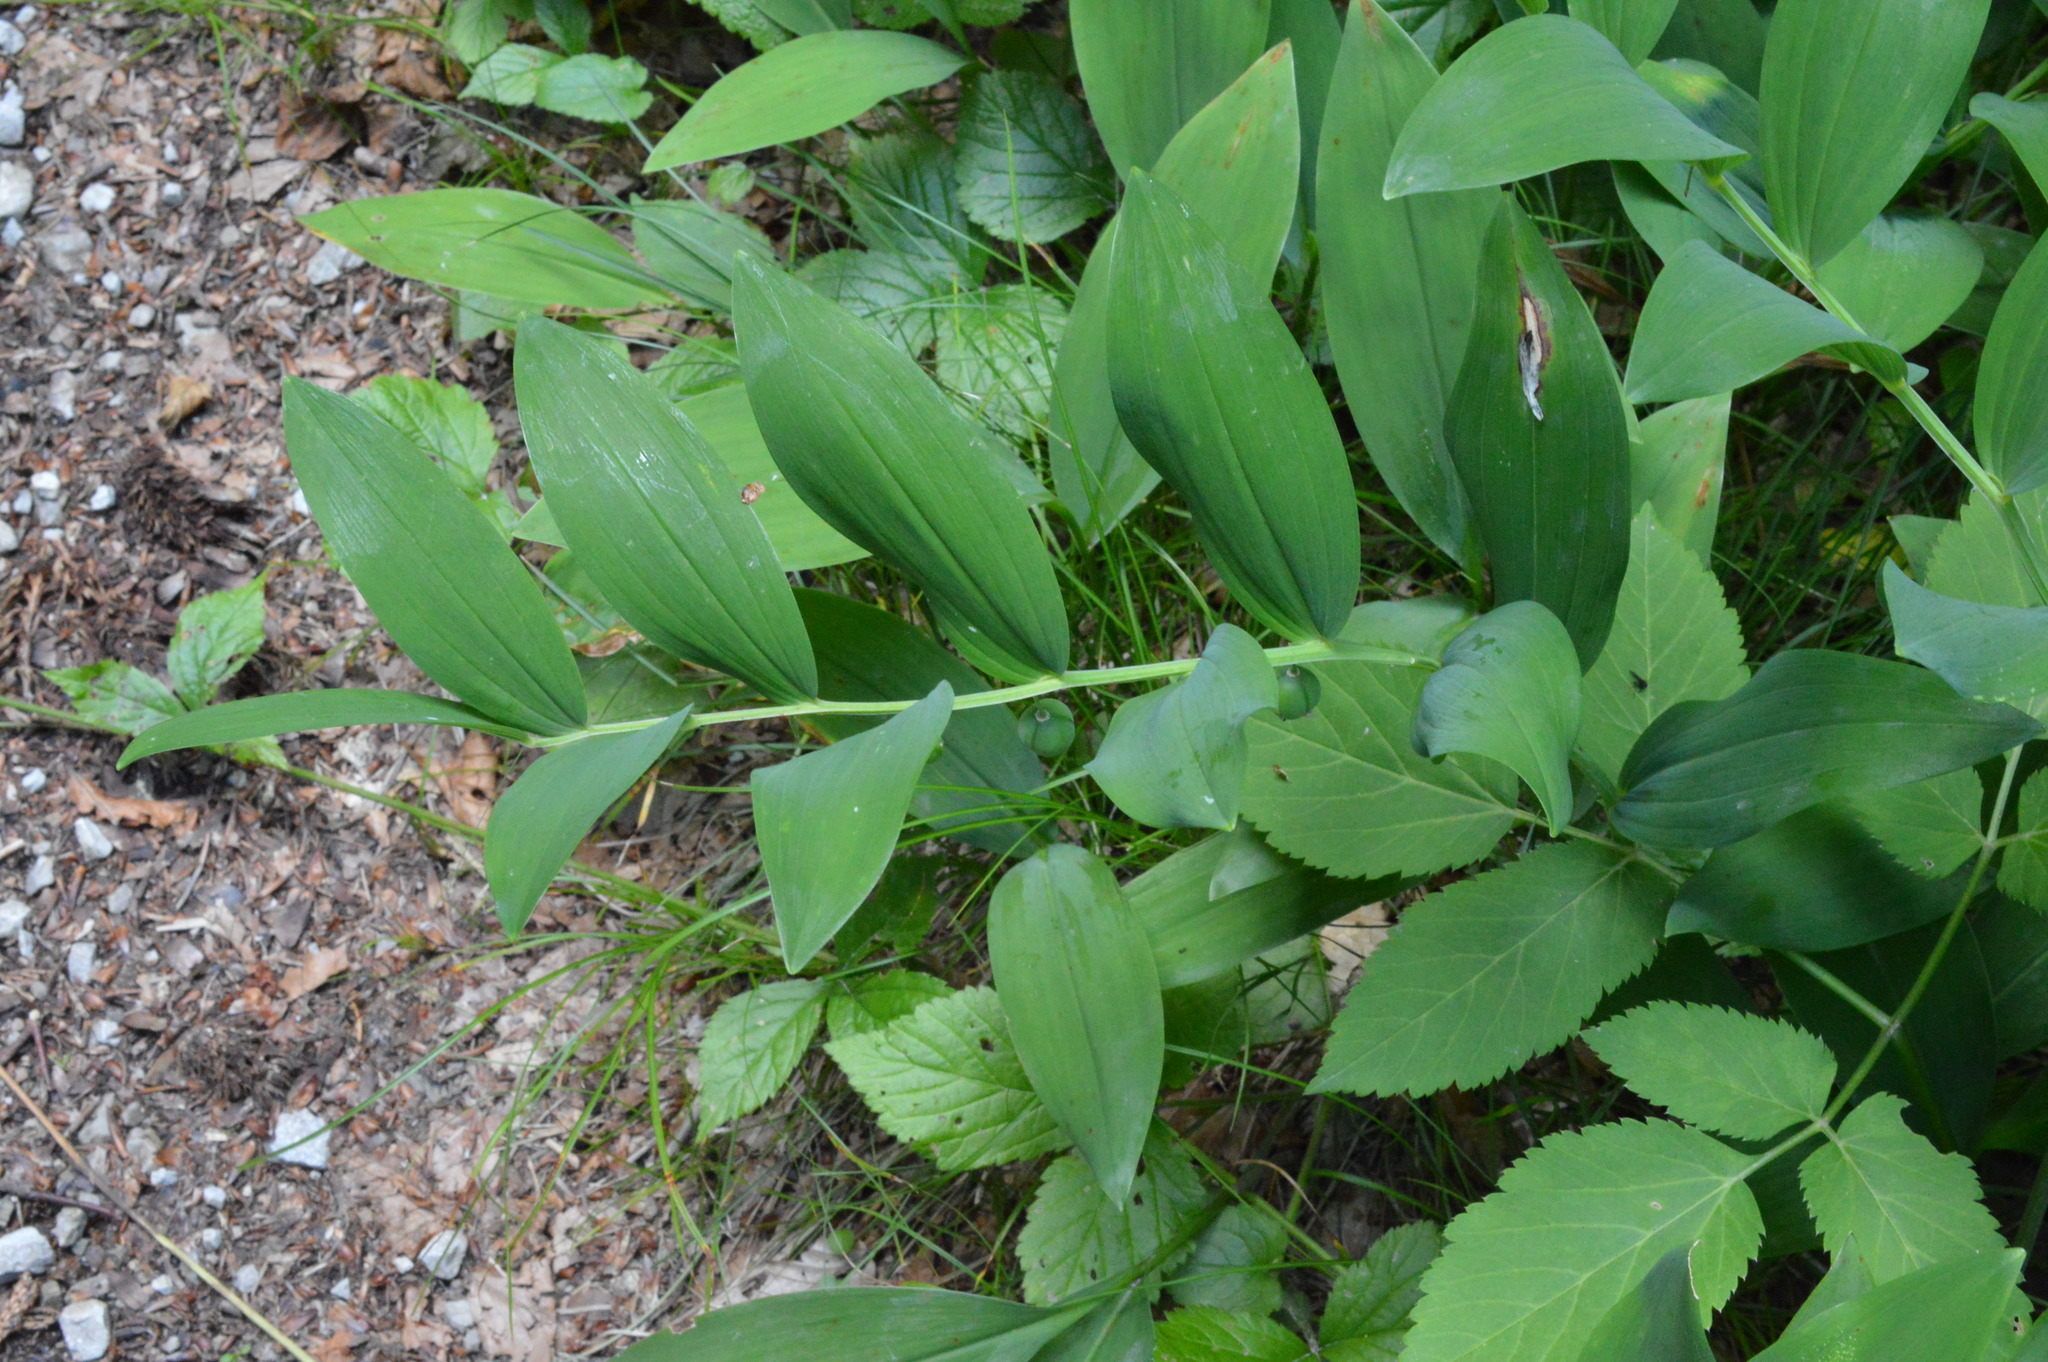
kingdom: Plantae
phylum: Tracheophyta
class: Liliopsida
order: Asparagales
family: Asparagaceae
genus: Polygonatum
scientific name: Polygonatum odoratum
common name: Angular solomon's-seal
